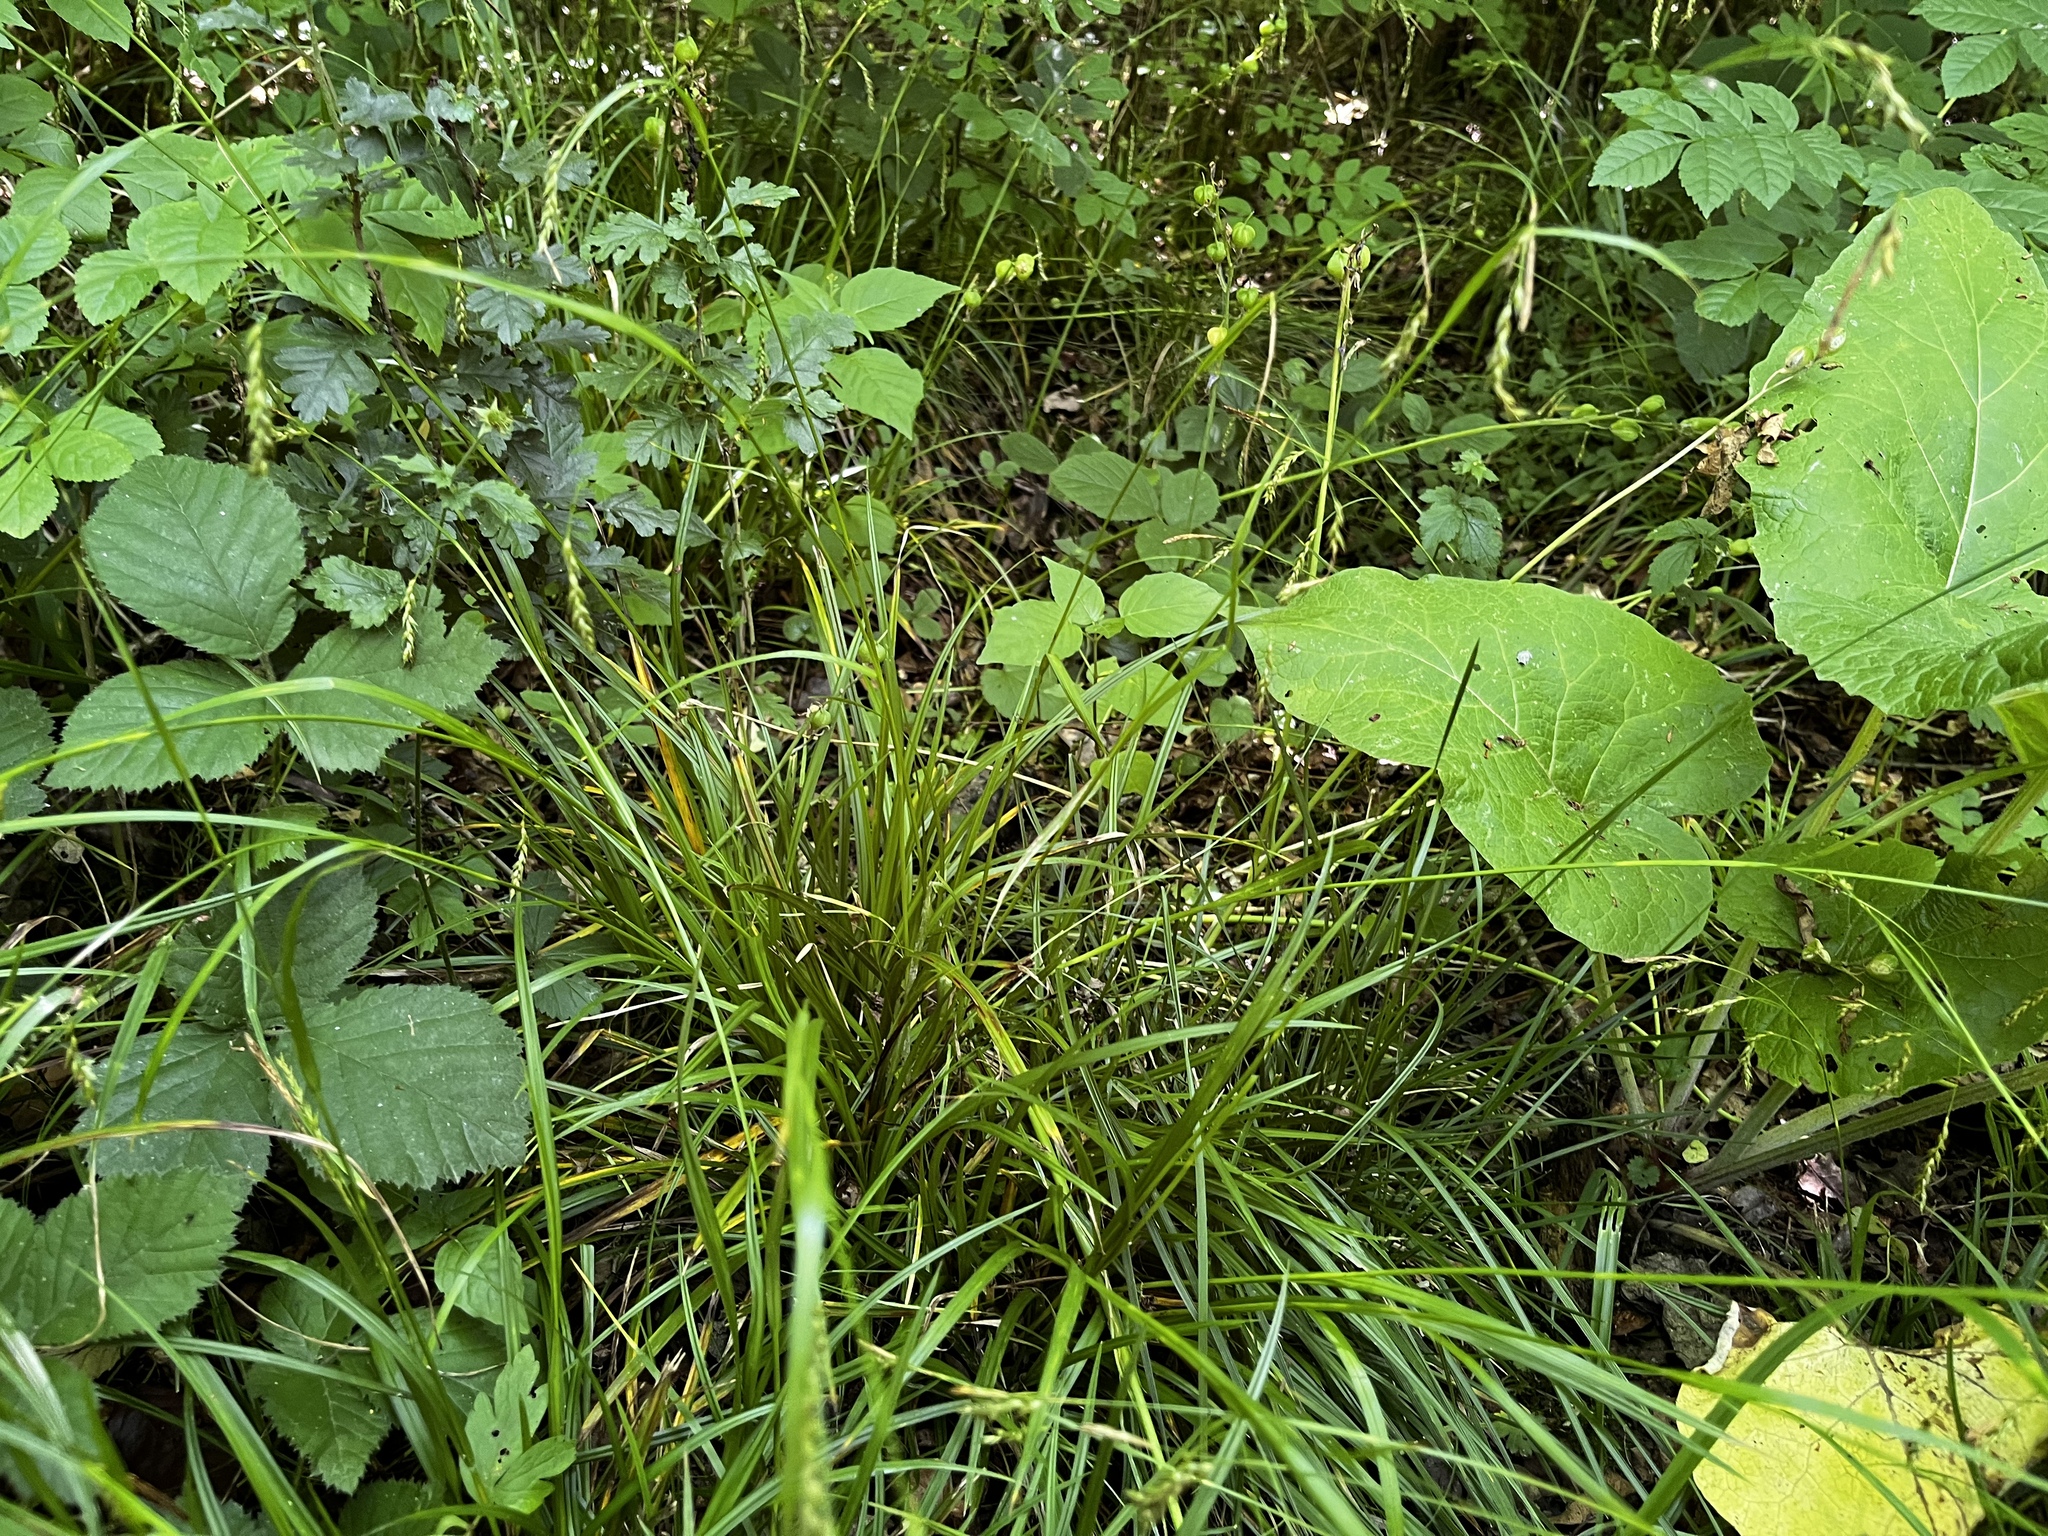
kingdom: Plantae
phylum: Tracheophyta
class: Liliopsida
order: Poales
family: Cyperaceae
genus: Carex
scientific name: Carex sylvatica
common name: Wood-sedge
